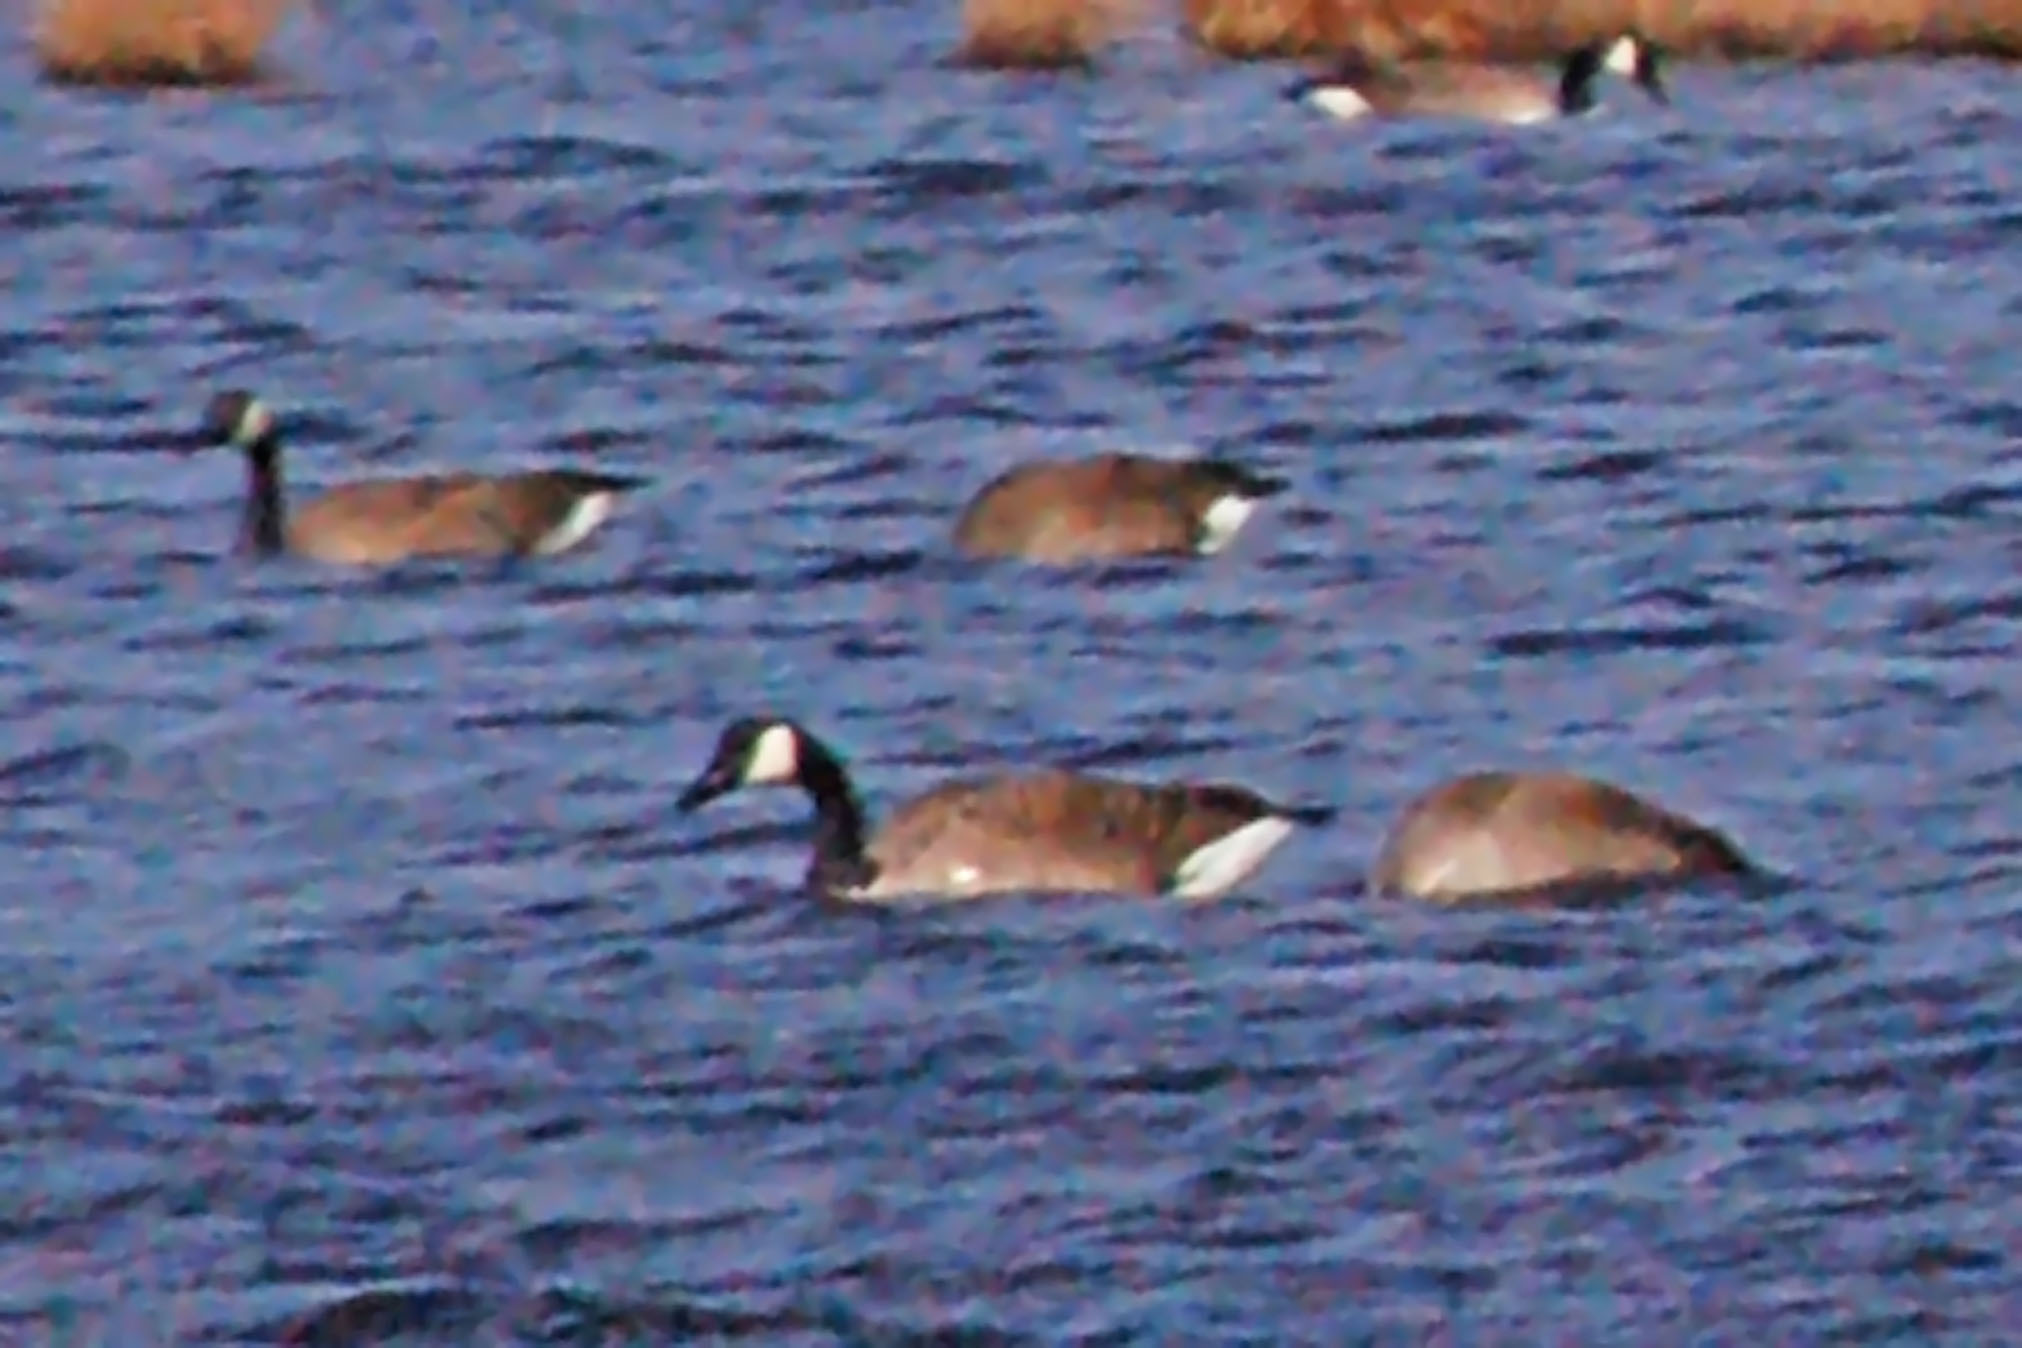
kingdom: Animalia
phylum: Chordata
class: Aves
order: Anseriformes
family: Anatidae
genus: Branta
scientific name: Branta canadensis
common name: Canada goose
